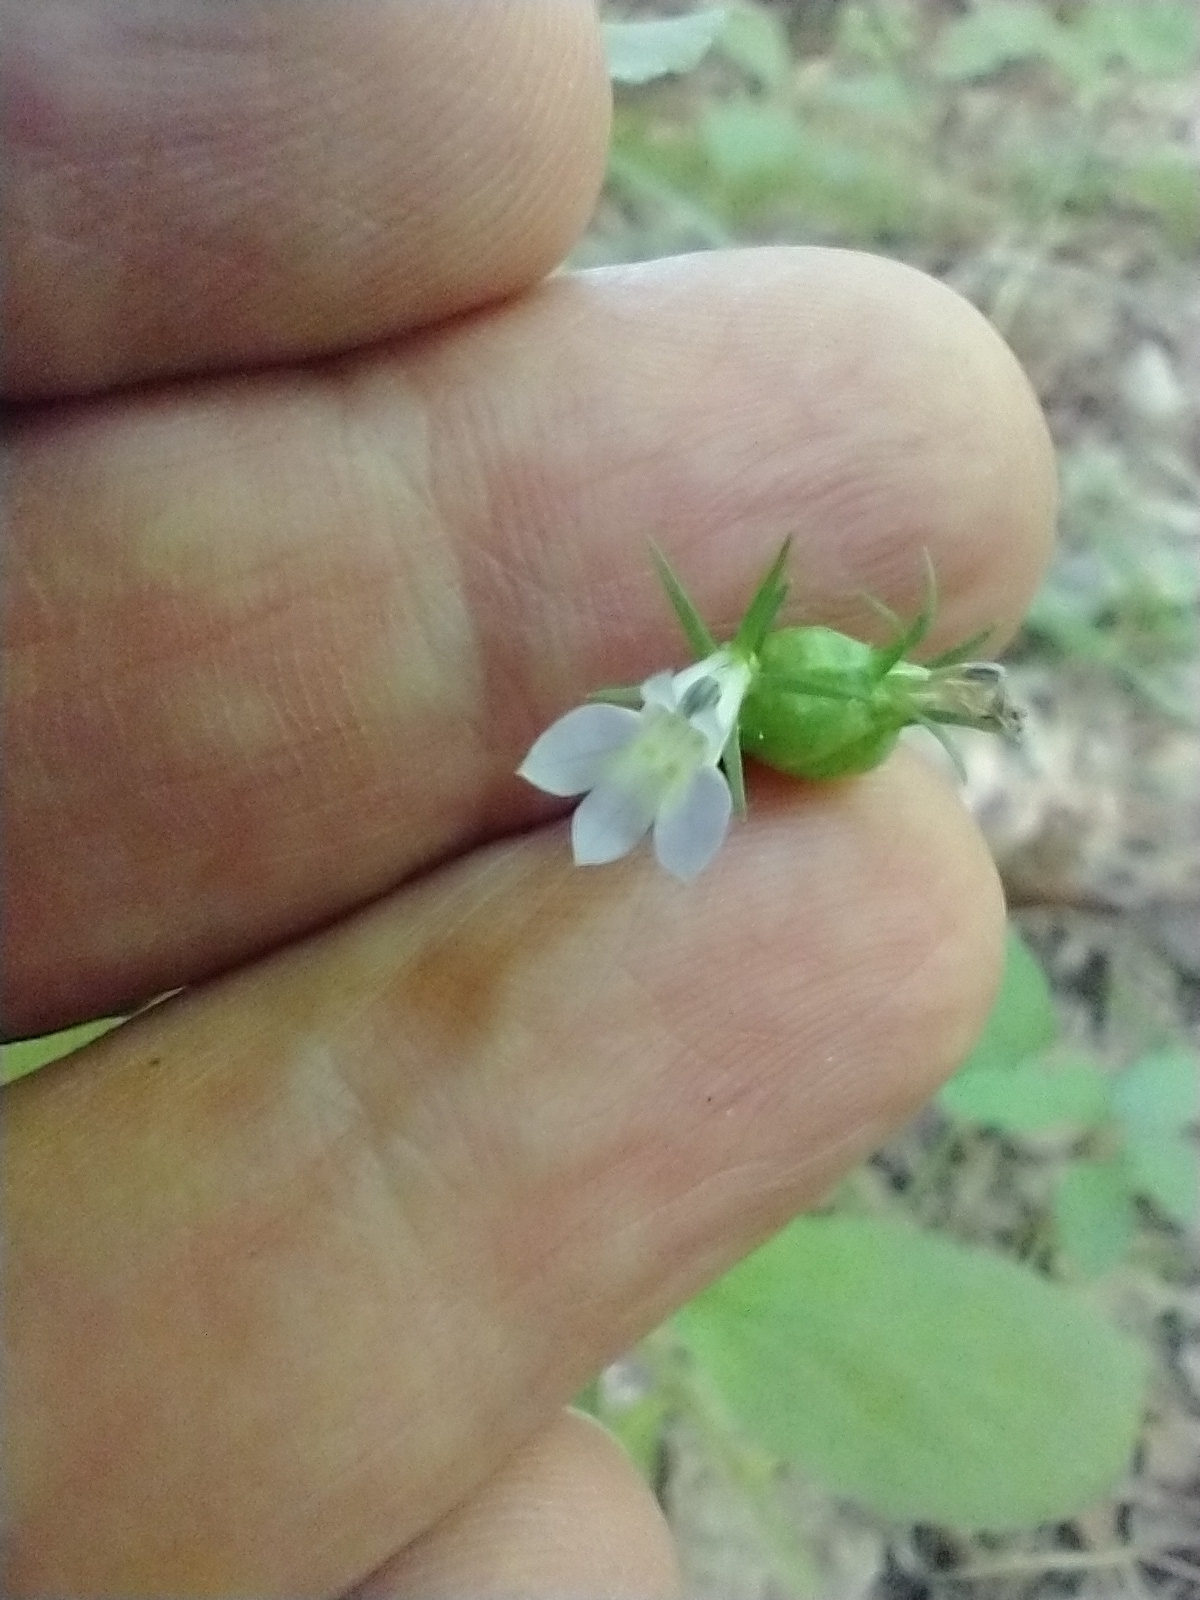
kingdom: Plantae
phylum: Tracheophyta
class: Magnoliopsida
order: Asterales
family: Campanulaceae
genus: Lobelia
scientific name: Lobelia inflata
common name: Indian tobacco
